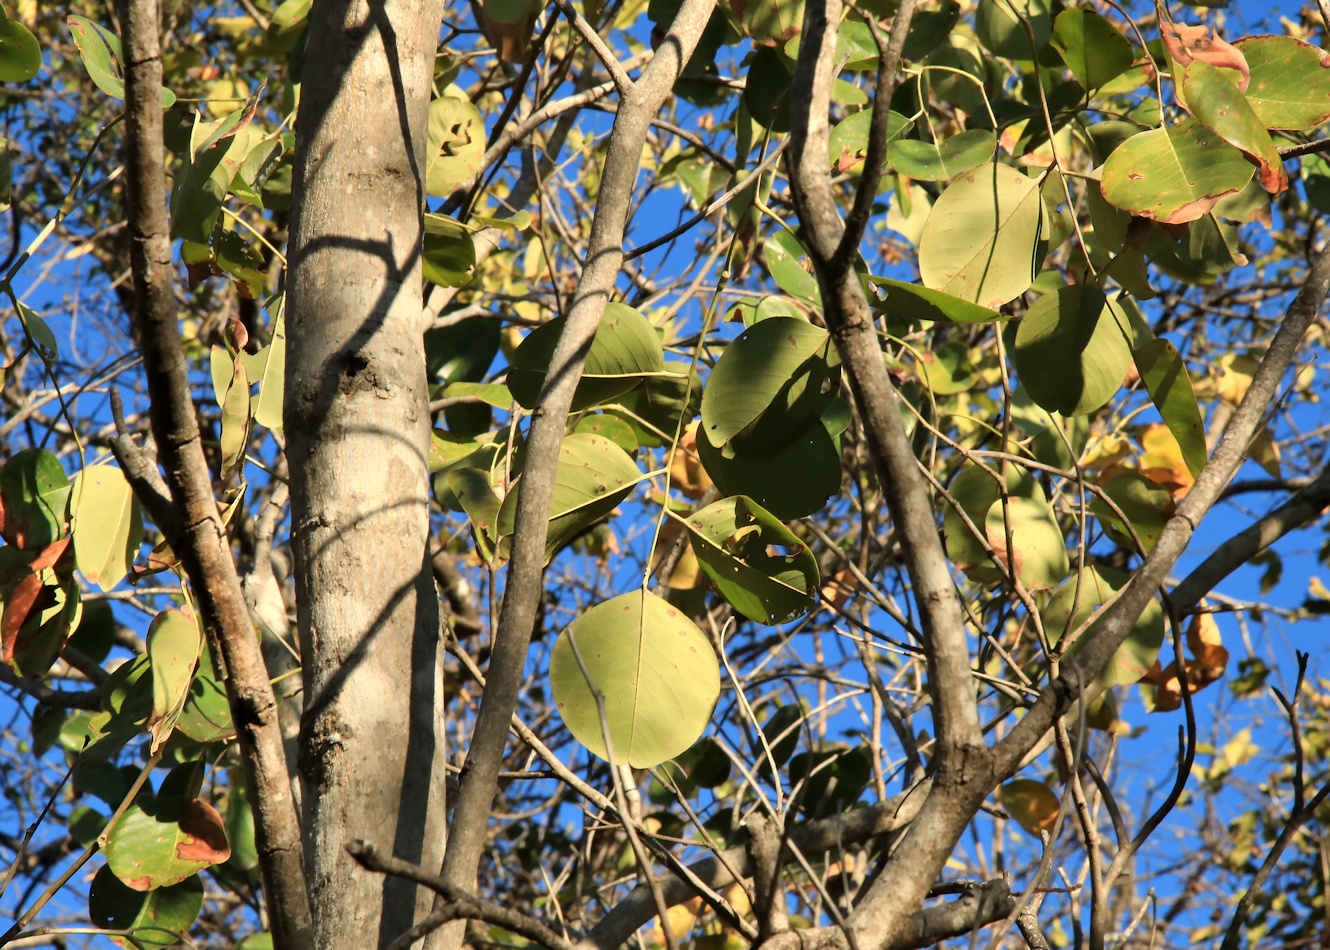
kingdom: Plantae
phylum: Tracheophyta
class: Magnoliopsida
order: Fabales
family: Fabaceae
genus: Pterocarpus
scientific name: Pterocarpus rotundifolius
